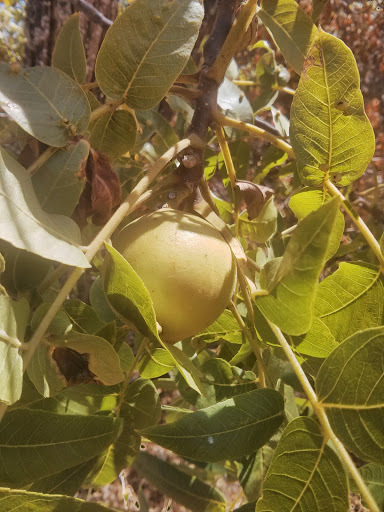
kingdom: Plantae
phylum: Tracheophyta
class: Magnoliopsida
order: Fagales
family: Juglandaceae
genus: Juglans
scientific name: Juglans hindsii
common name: Northern california black walnut
